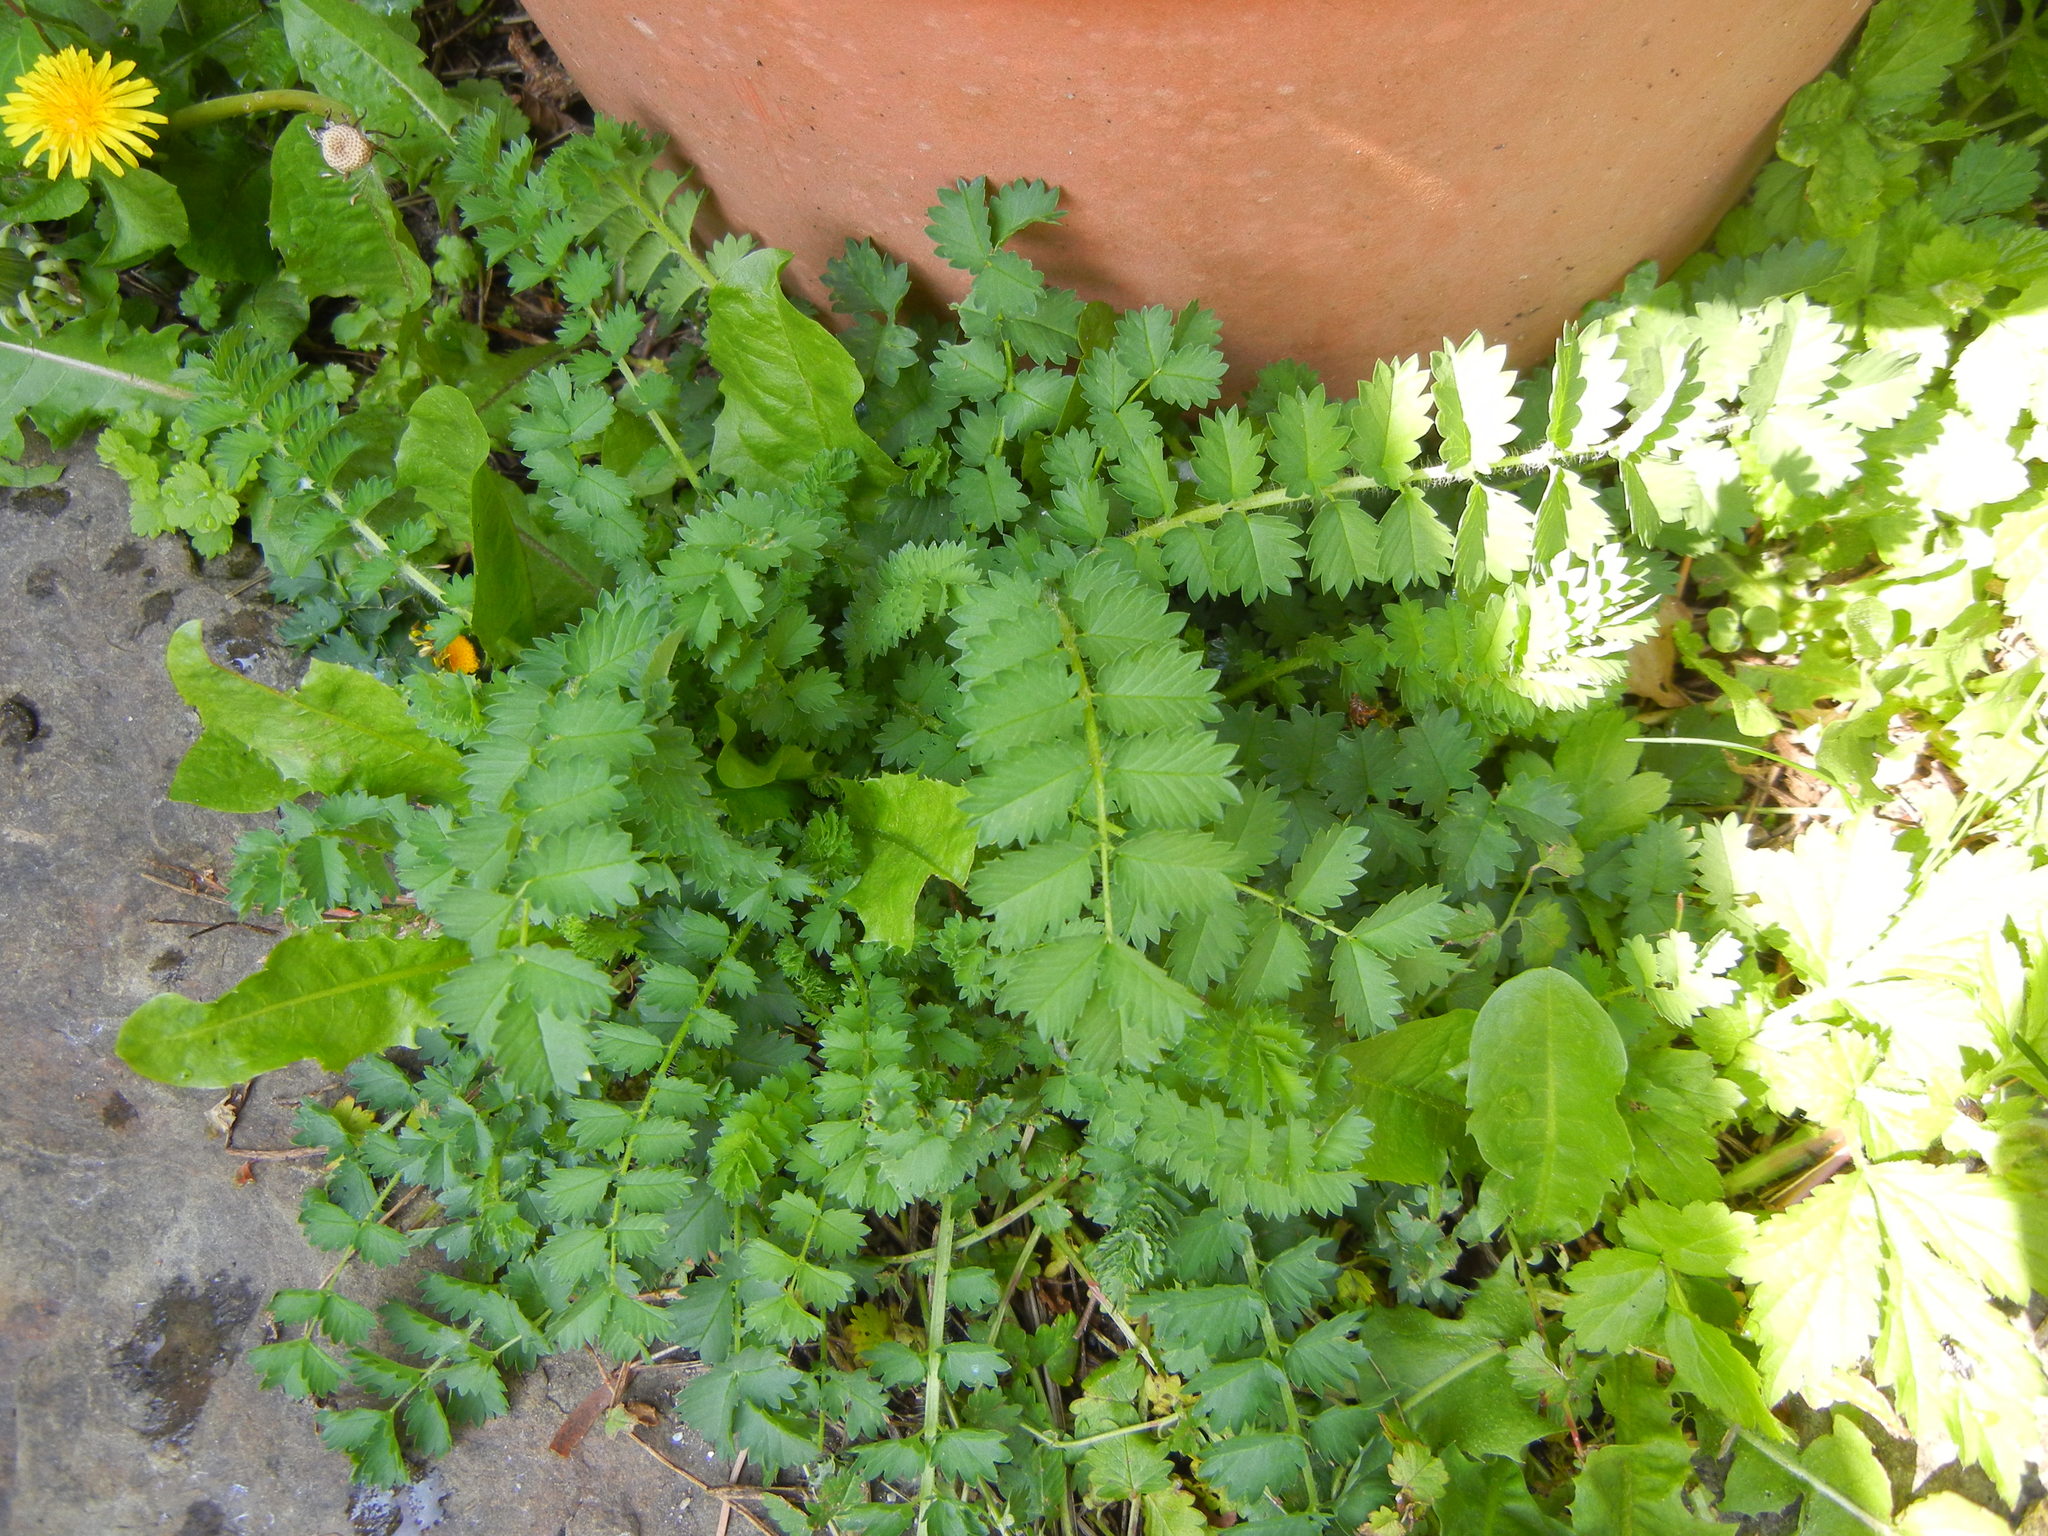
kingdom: Plantae
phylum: Tracheophyta
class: Magnoliopsida
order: Rosales
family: Rosaceae
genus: Poterium
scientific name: Poterium sanguisorba
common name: Salad burnet
